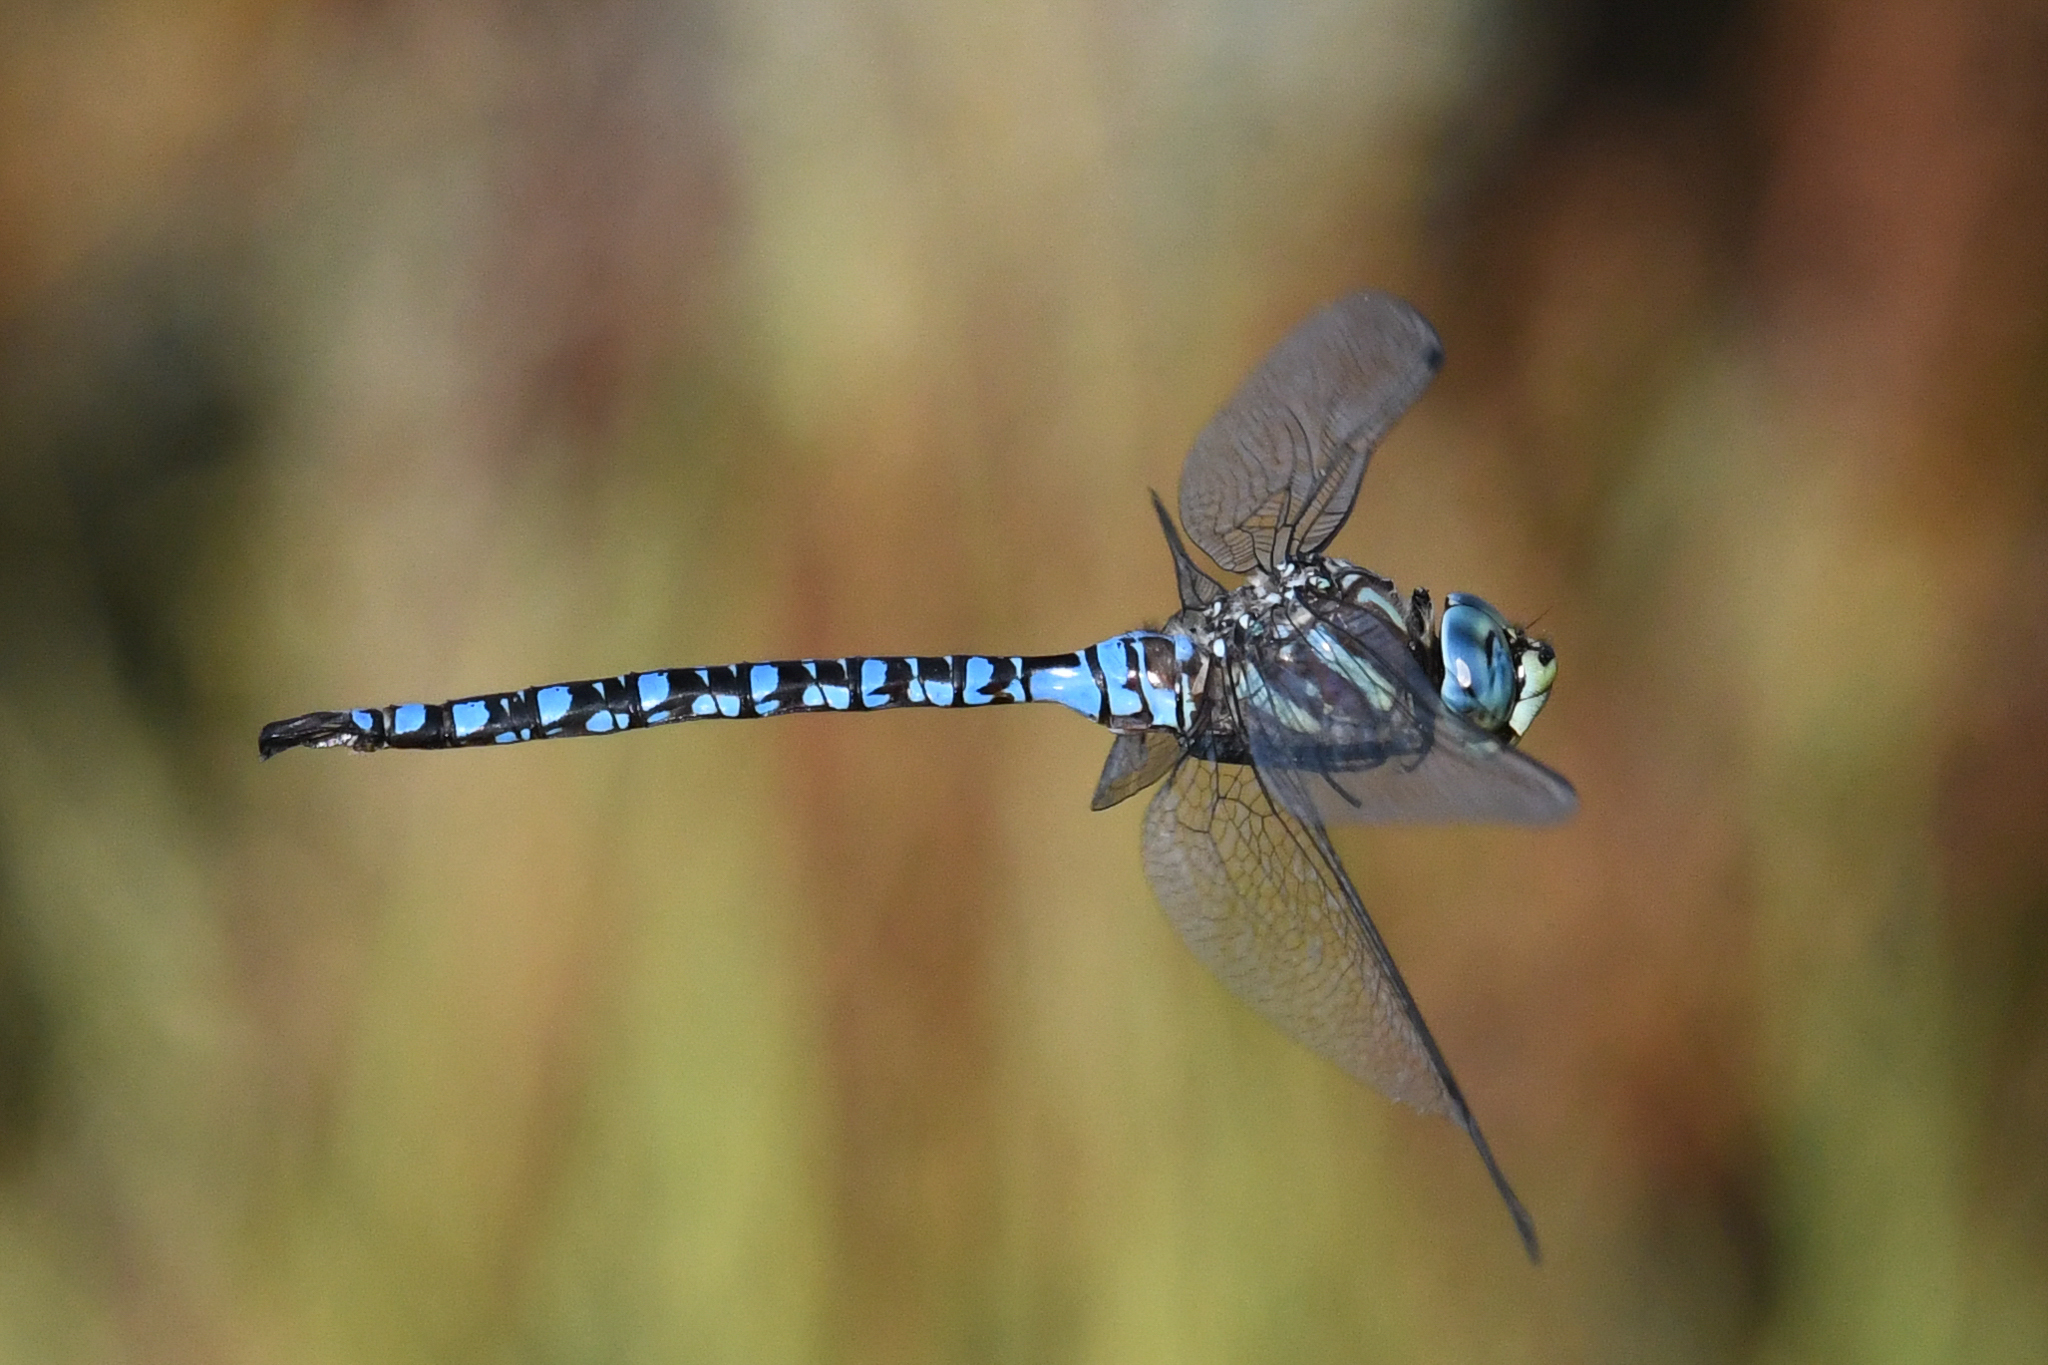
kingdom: Animalia
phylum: Arthropoda
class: Insecta
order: Odonata
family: Aeshnidae
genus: Aeshna
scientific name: Aeshna palmata
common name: Paddle-tailed darner
